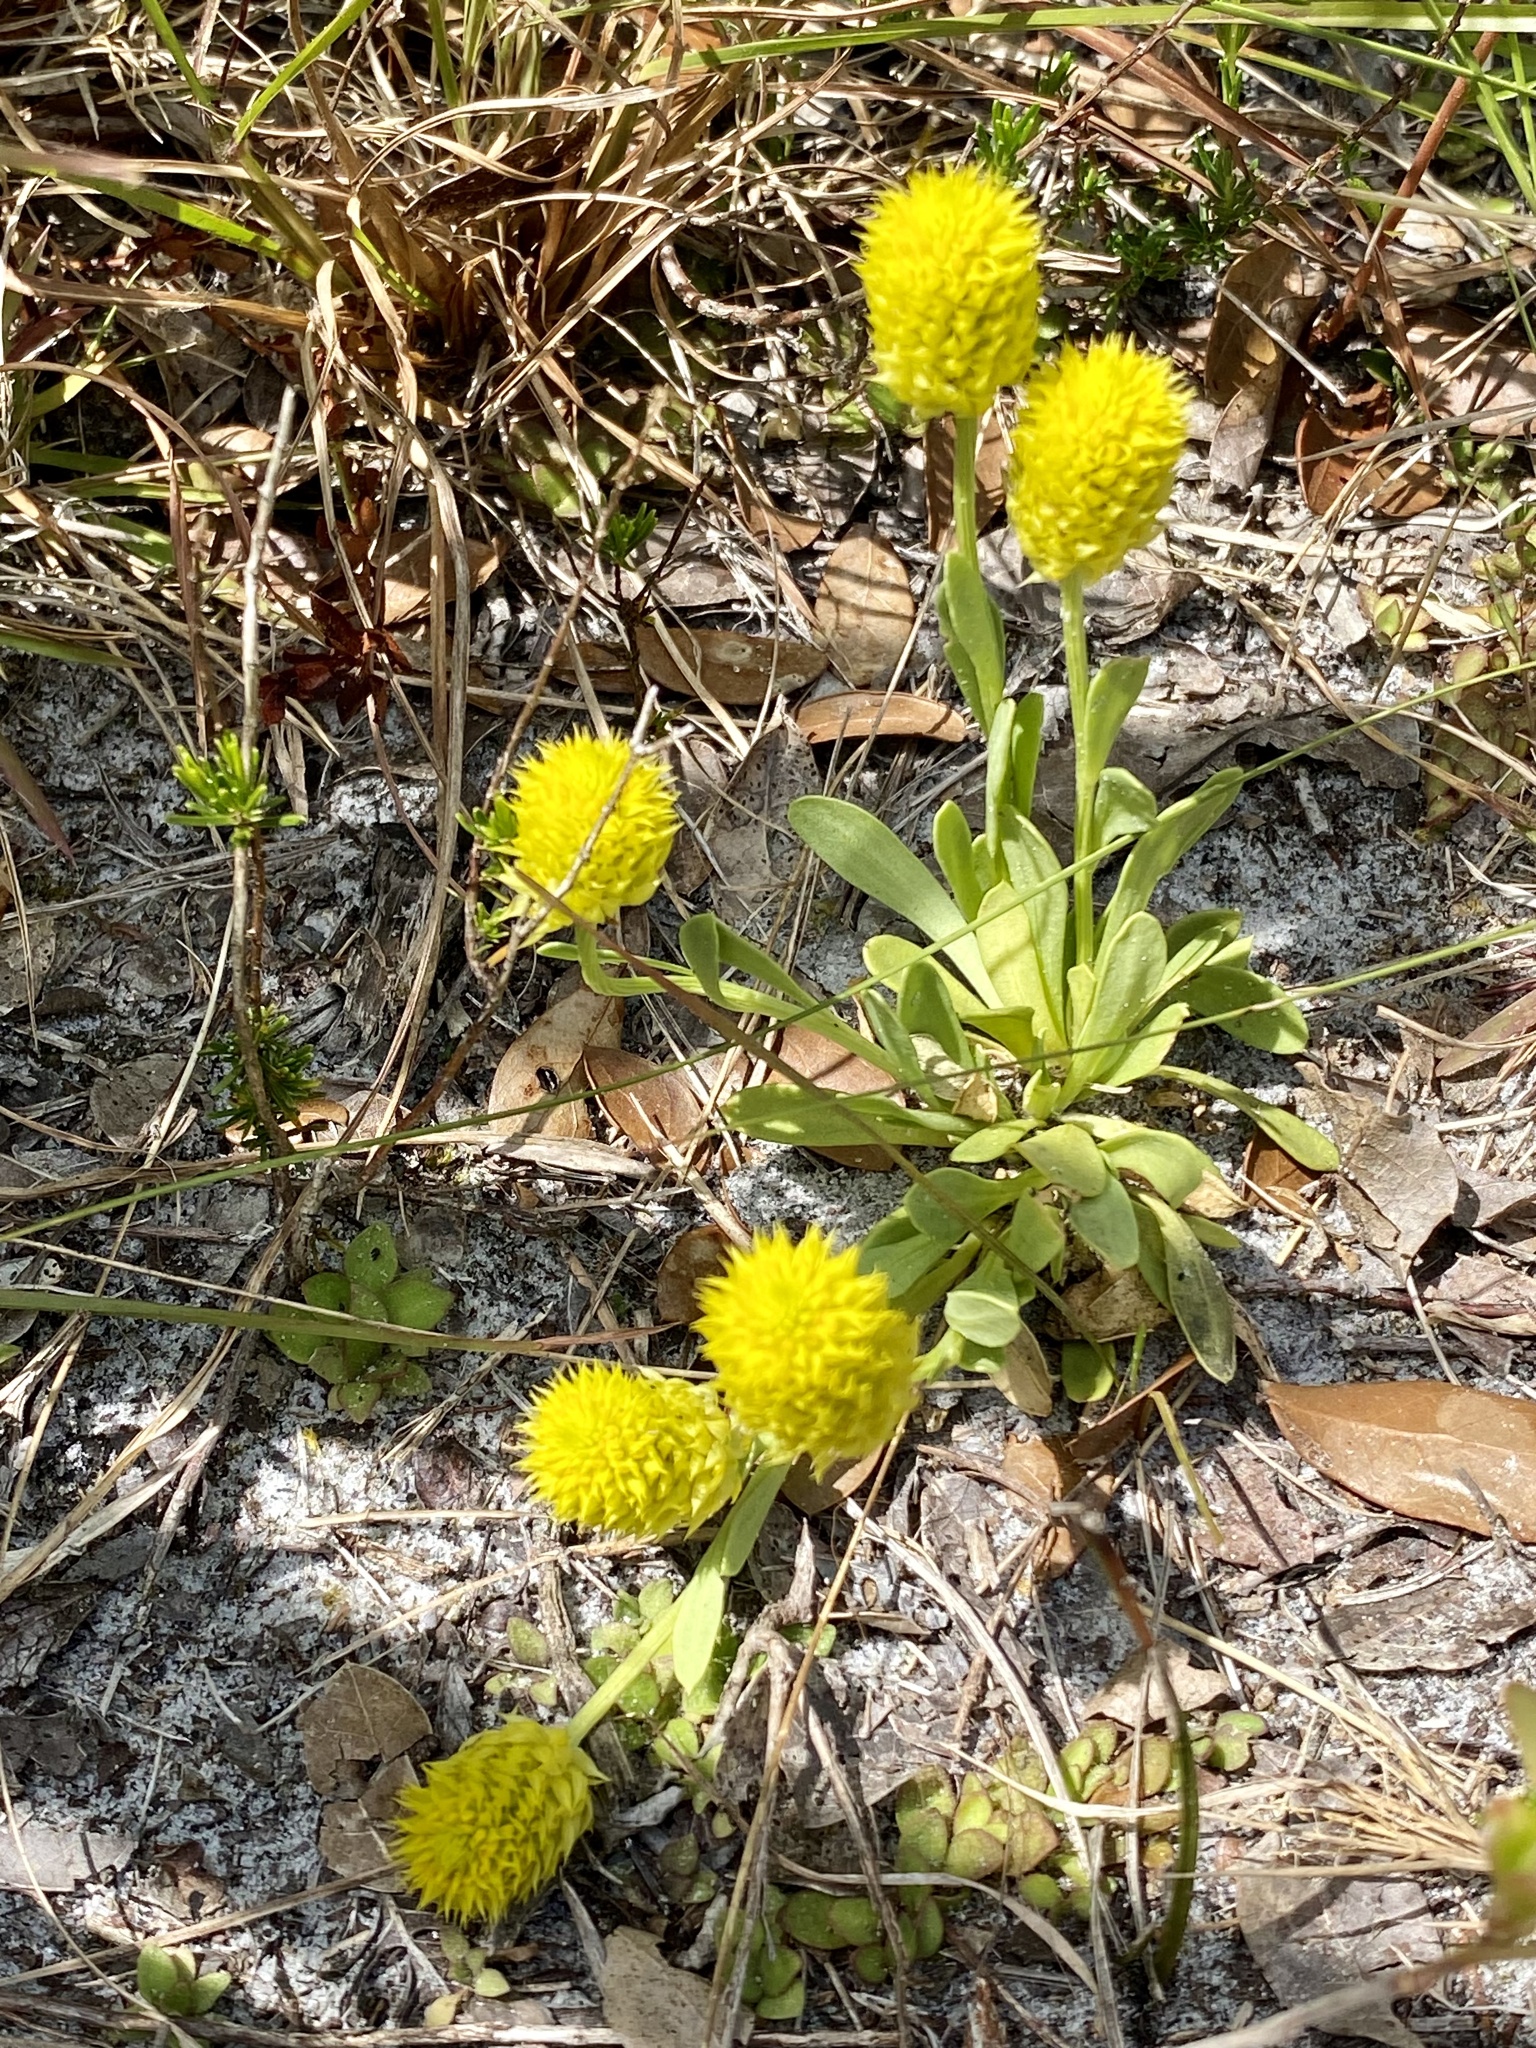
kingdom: Plantae
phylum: Tracheophyta
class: Magnoliopsida
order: Fabales
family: Polygalaceae
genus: Polygala
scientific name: Polygala nana
